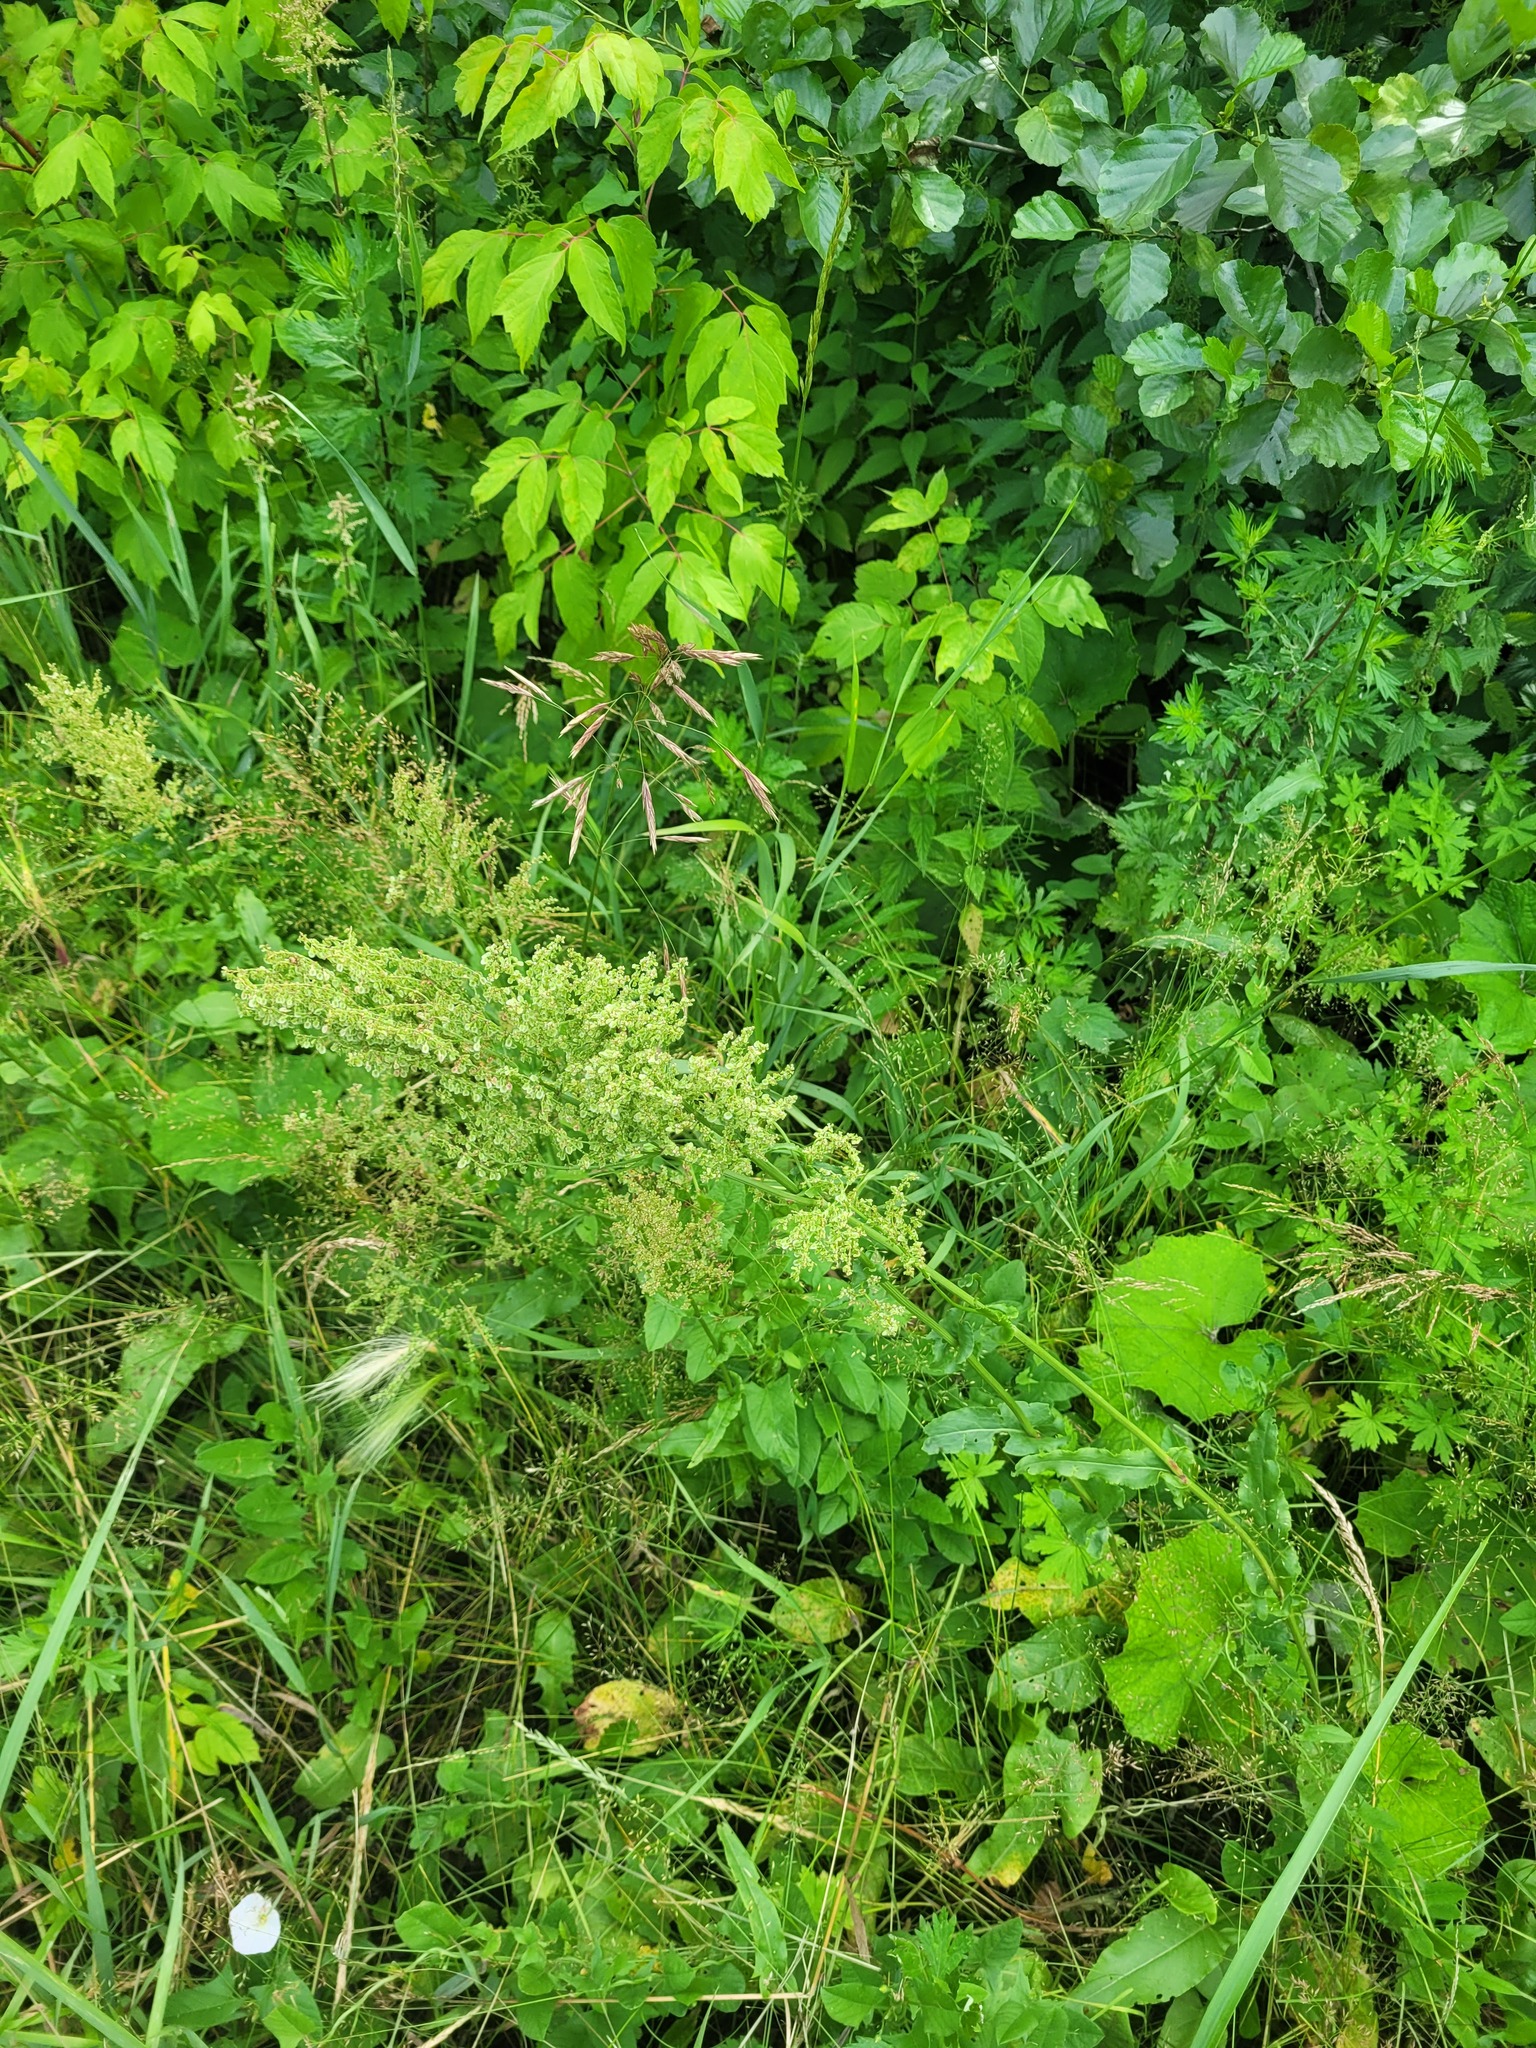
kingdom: Plantae
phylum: Tracheophyta
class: Magnoliopsida
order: Caryophyllales
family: Polygonaceae
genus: Rumex
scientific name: Rumex thyrsiflorus
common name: Garden sorrel
